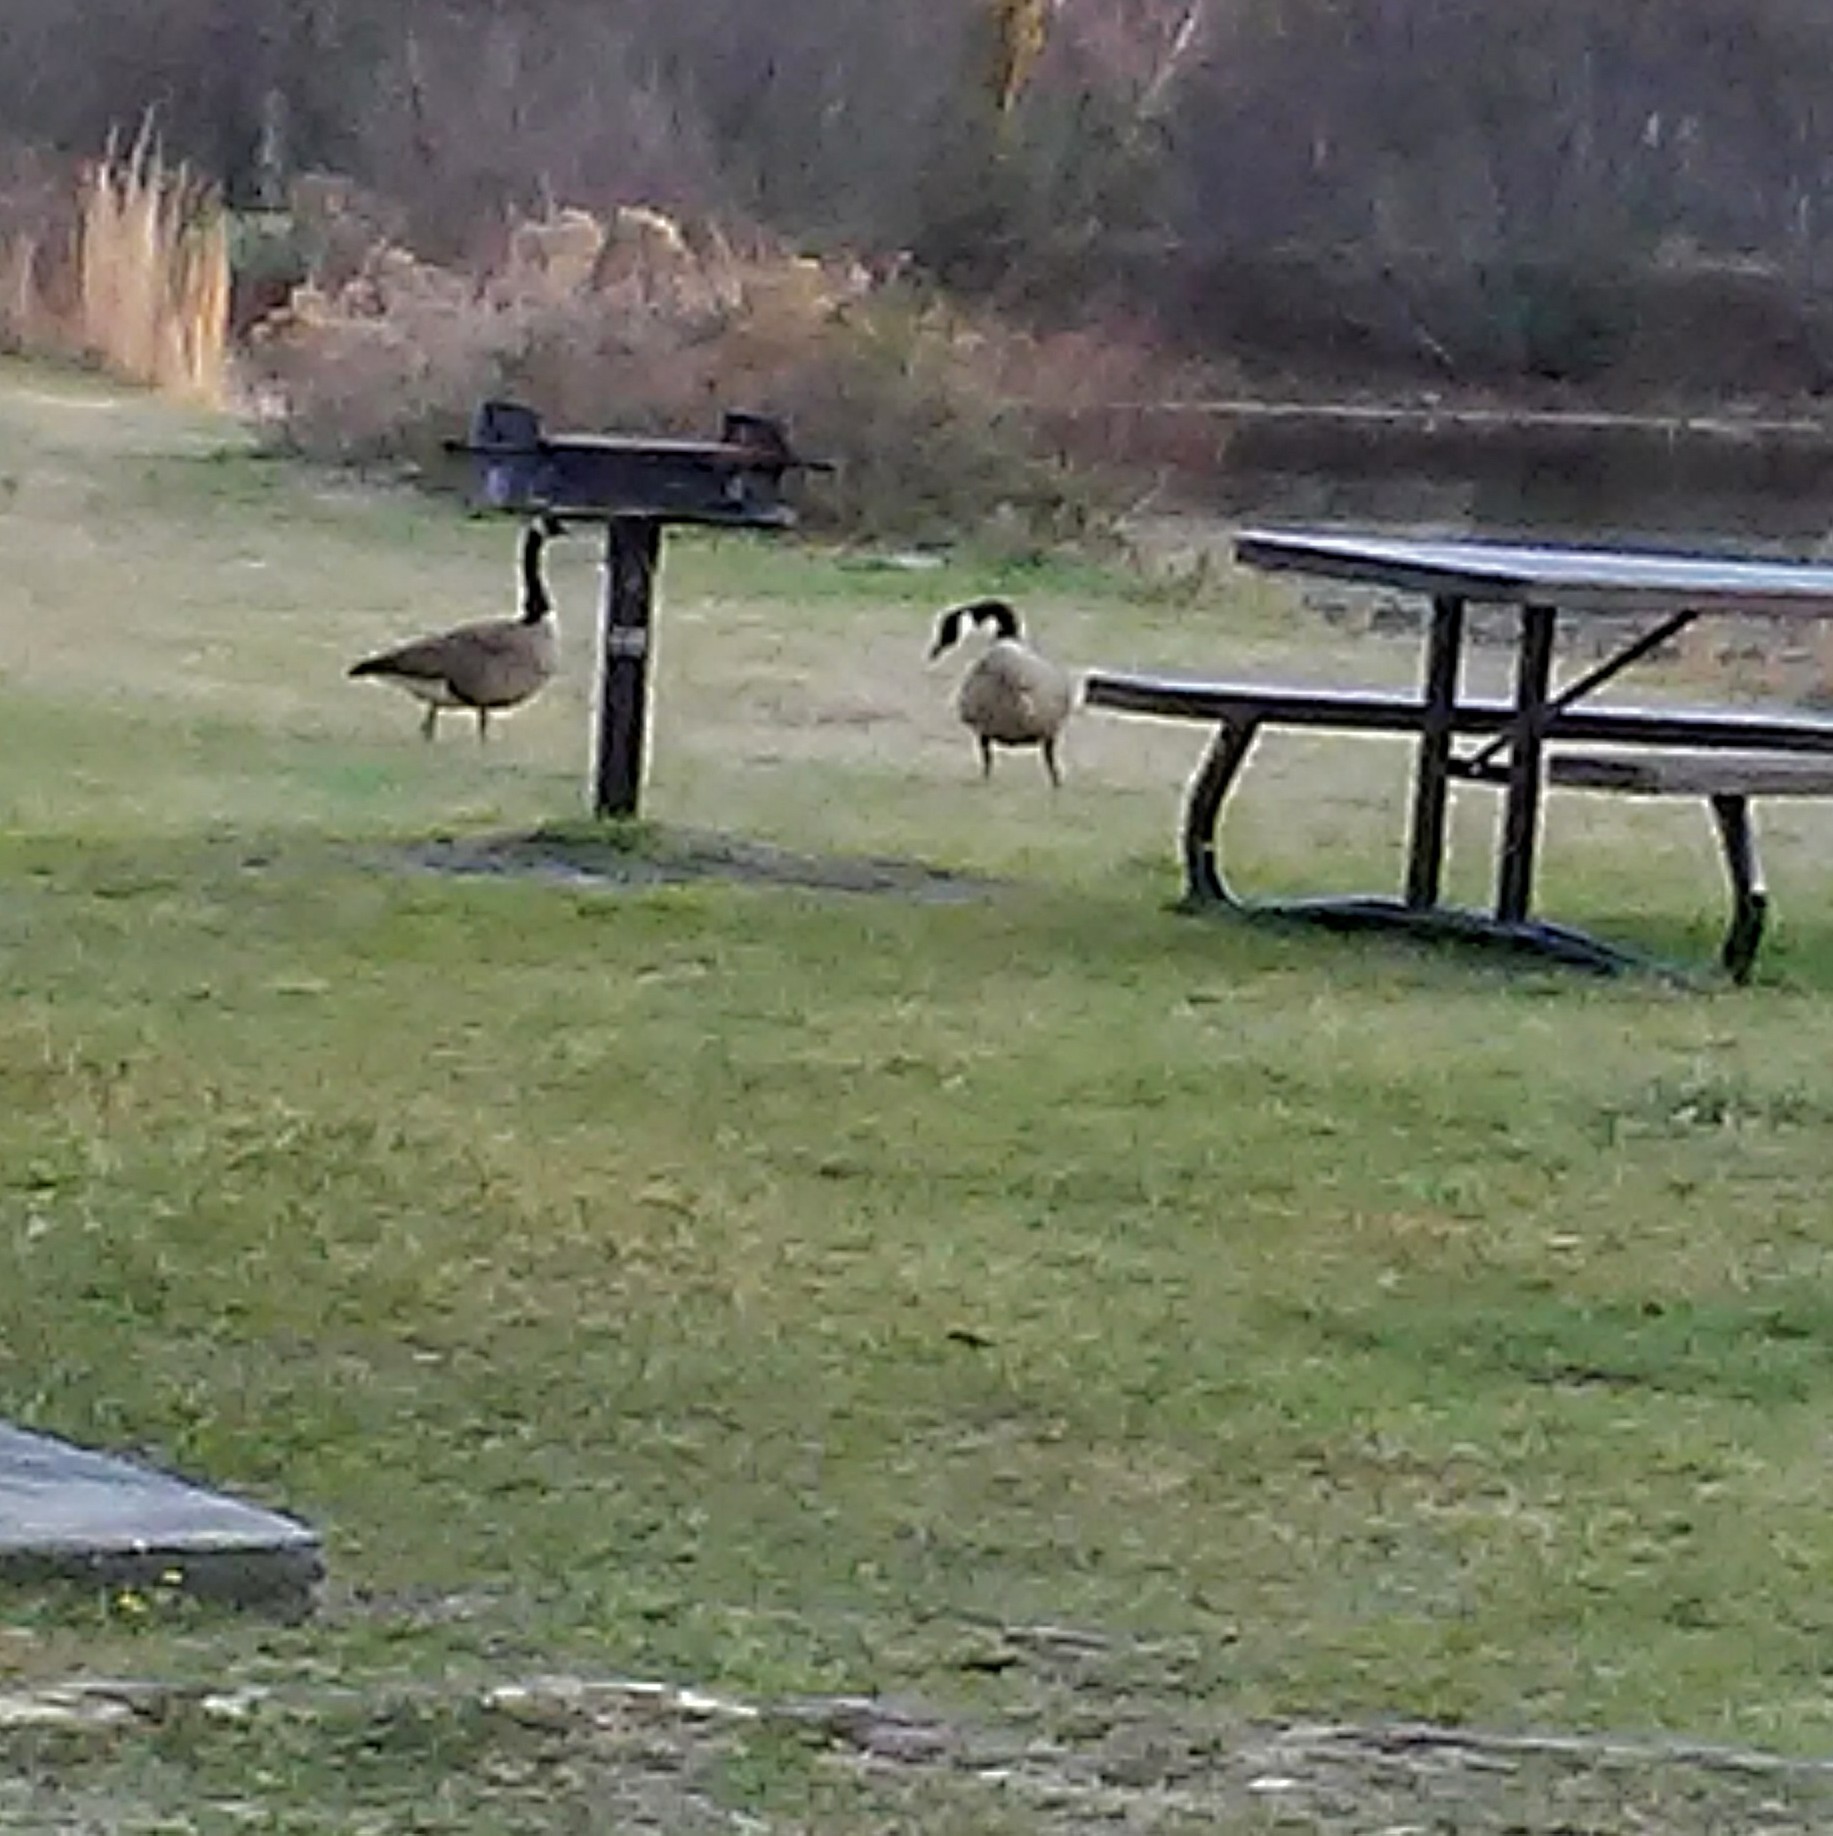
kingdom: Animalia
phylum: Chordata
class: Aves
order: Anseriformes
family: Anatidae
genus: Branta
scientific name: Branta canadensis
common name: Canada goose
